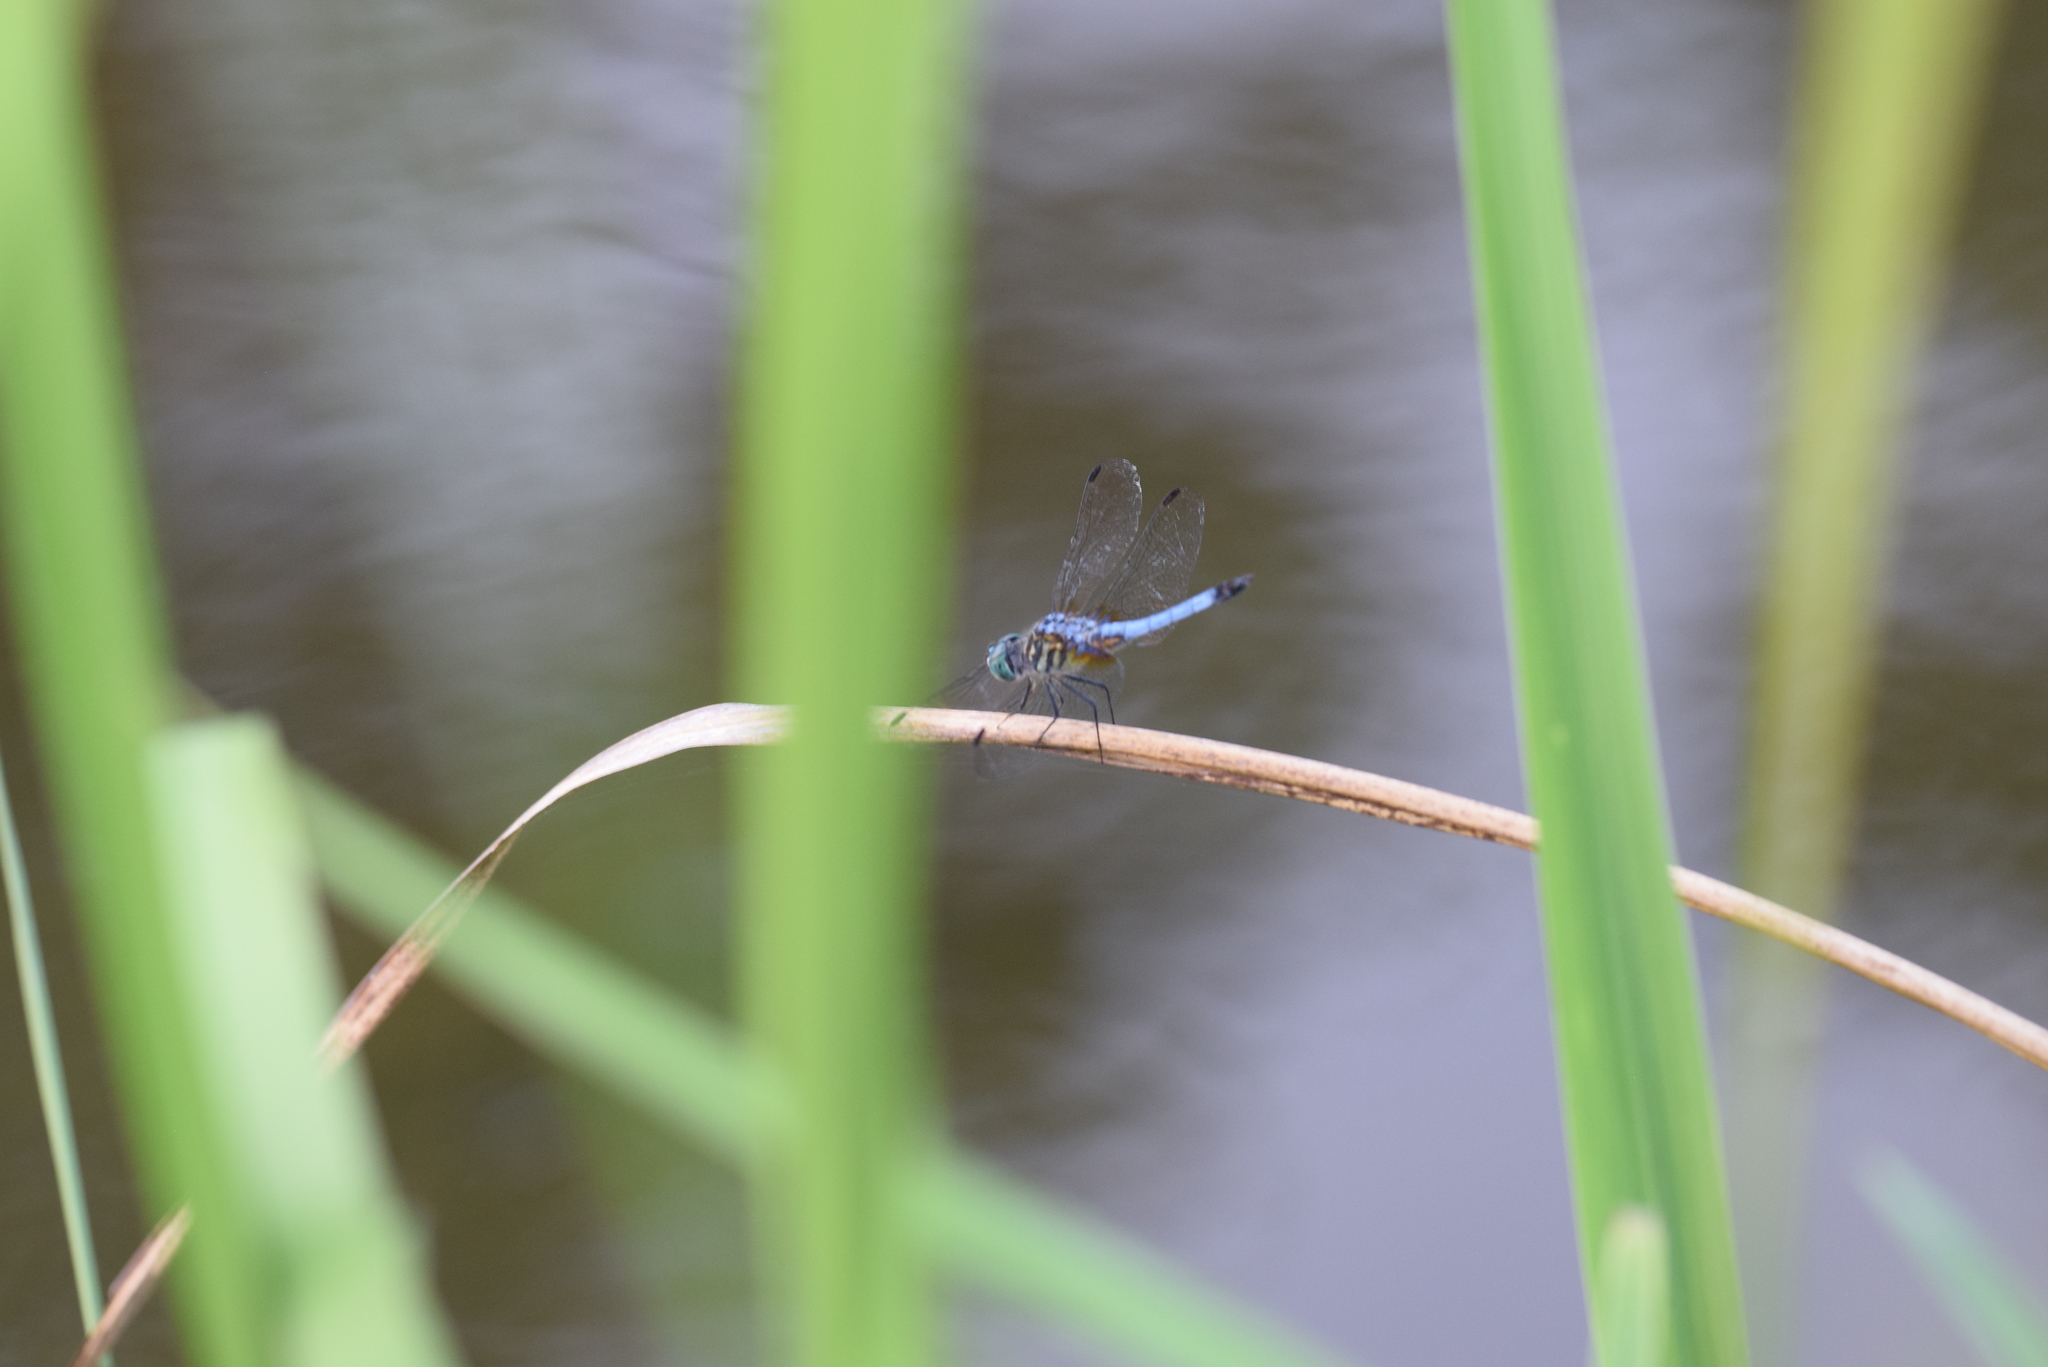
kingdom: Animalia
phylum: Arthropoda
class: Insecta
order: Odonata
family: Libellulidae
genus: Pachydiplax
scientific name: Pachydiplax longipennis
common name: Blue dasher
